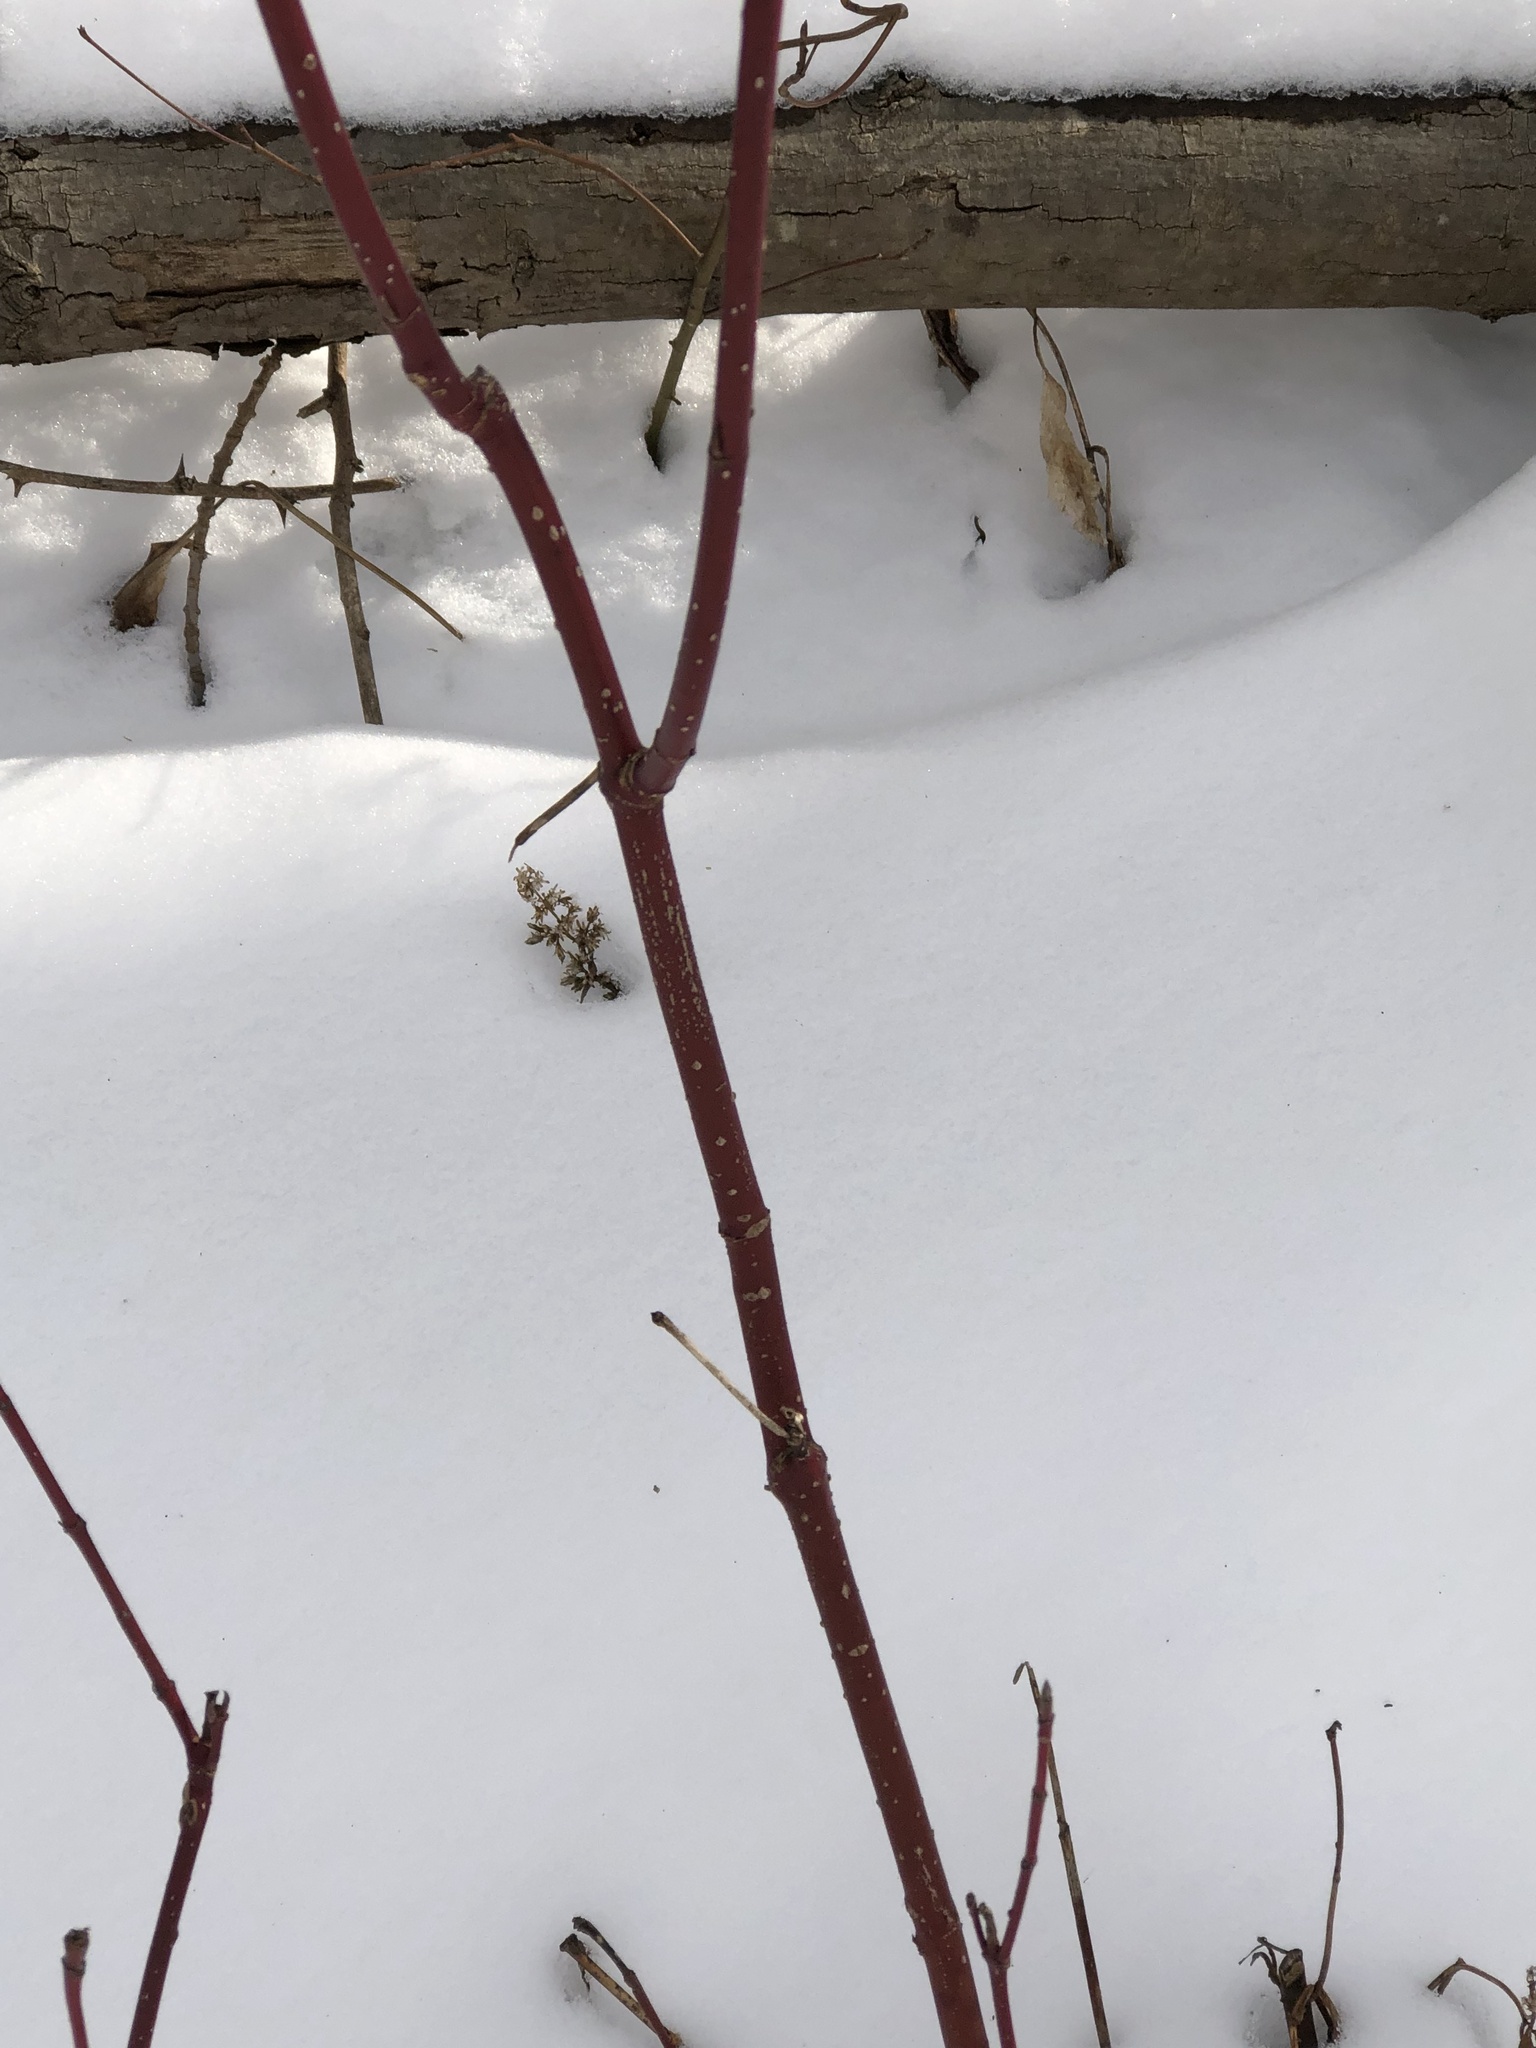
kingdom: Plantae
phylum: Tracheophyta
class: Magnoliopsida
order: Cornales
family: Cornaceae
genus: Cornus
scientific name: Cornus sericea
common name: Red-osier dogwood
